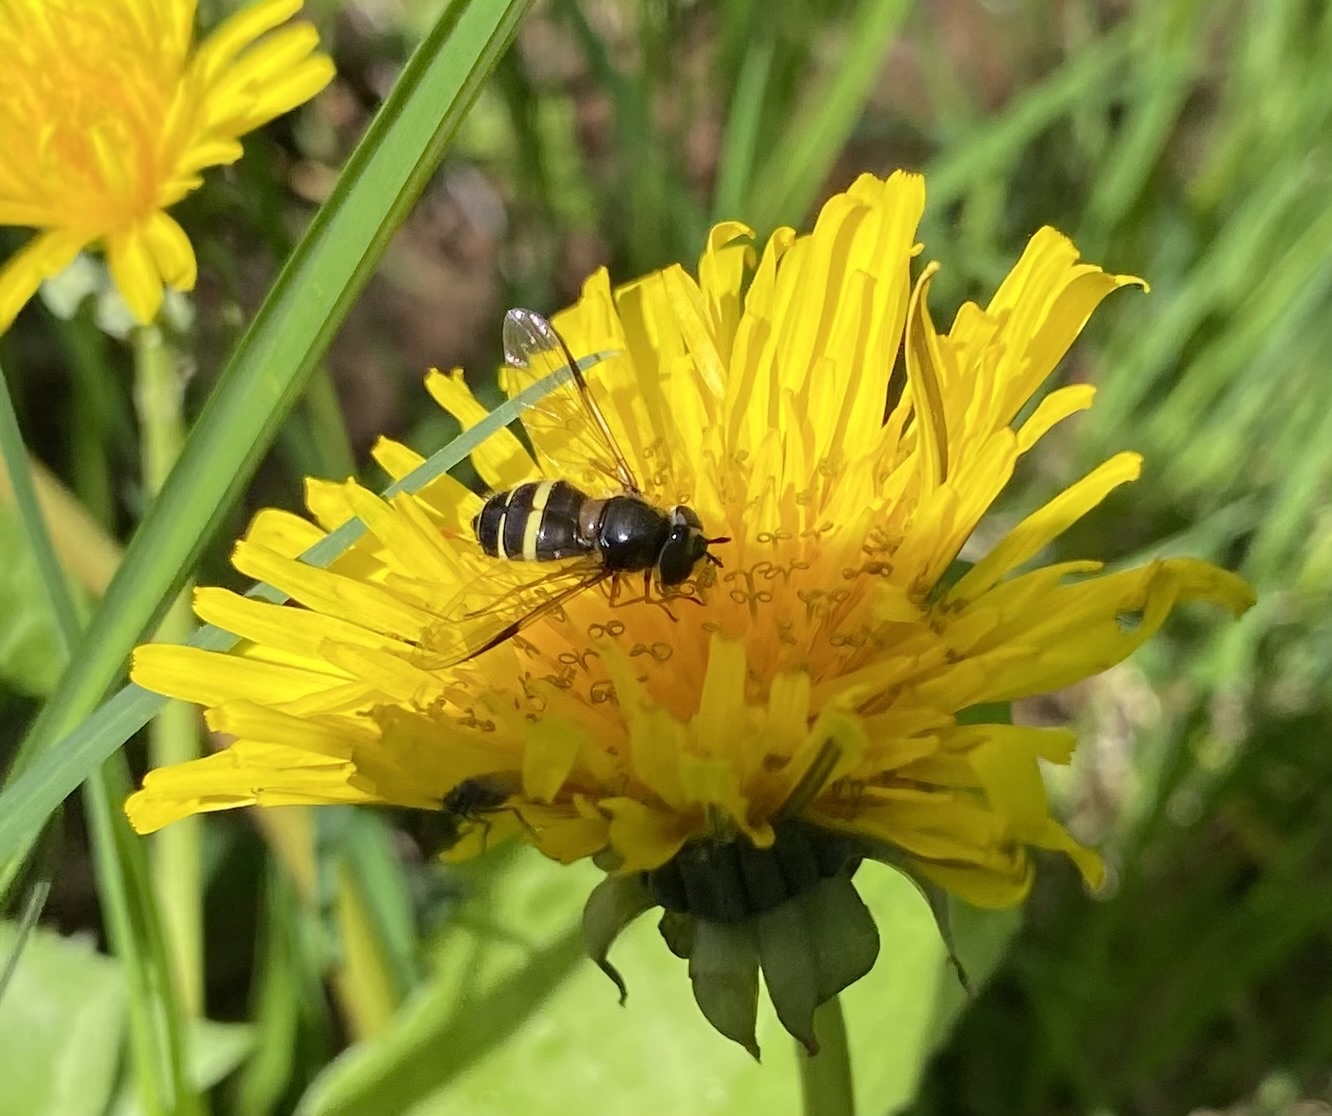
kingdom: Animalia
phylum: Arthropoda
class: Insecta
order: Diptera
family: Syrphidae
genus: Dasysyrphus
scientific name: Dasysyrphus tricinctus
